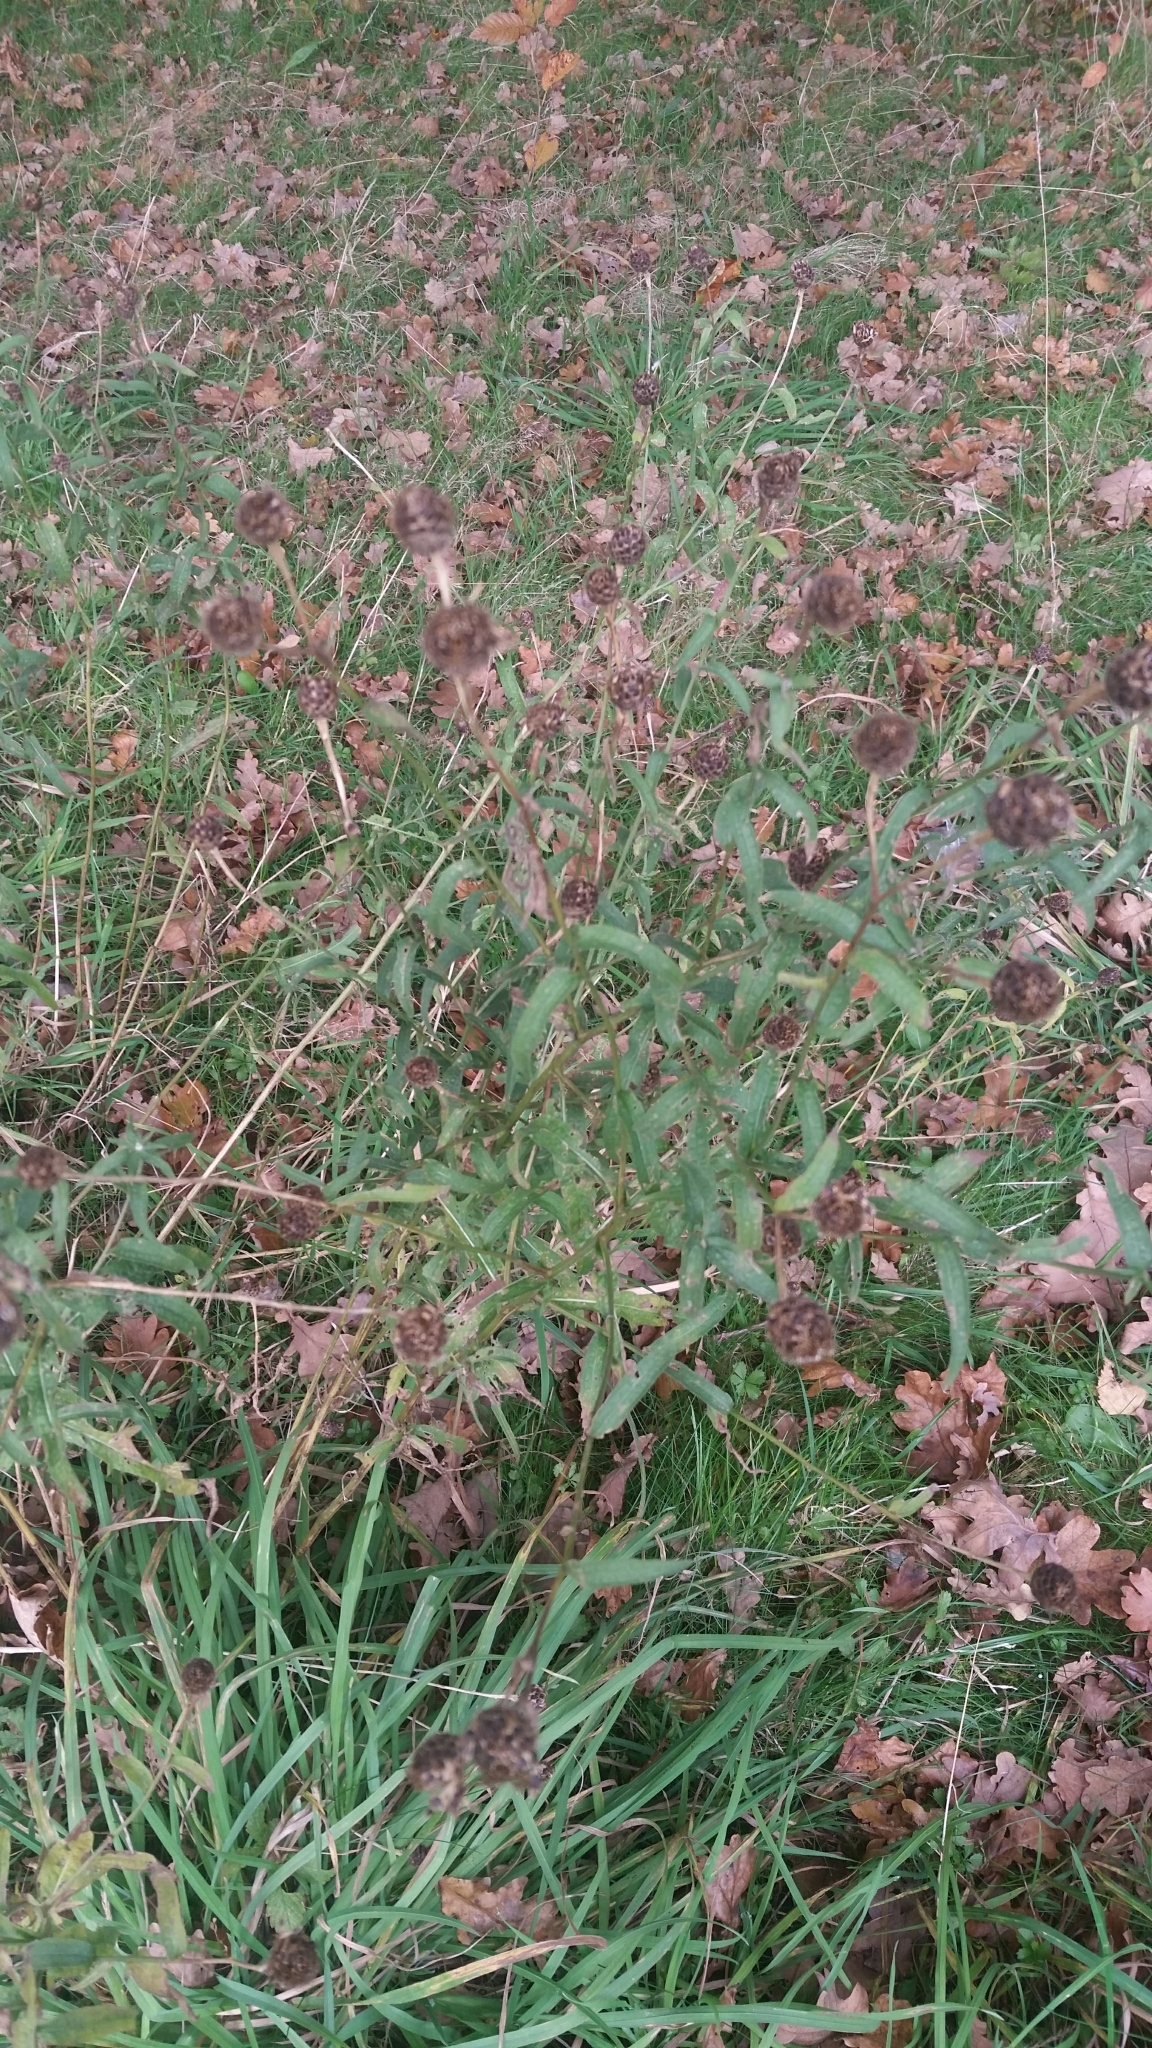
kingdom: Plantae
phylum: Tracheophyta
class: Magnoliopsida
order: Asterales
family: Asteraceae
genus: Centaurea
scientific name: Centaurea nigra
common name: Lesser knapweed
